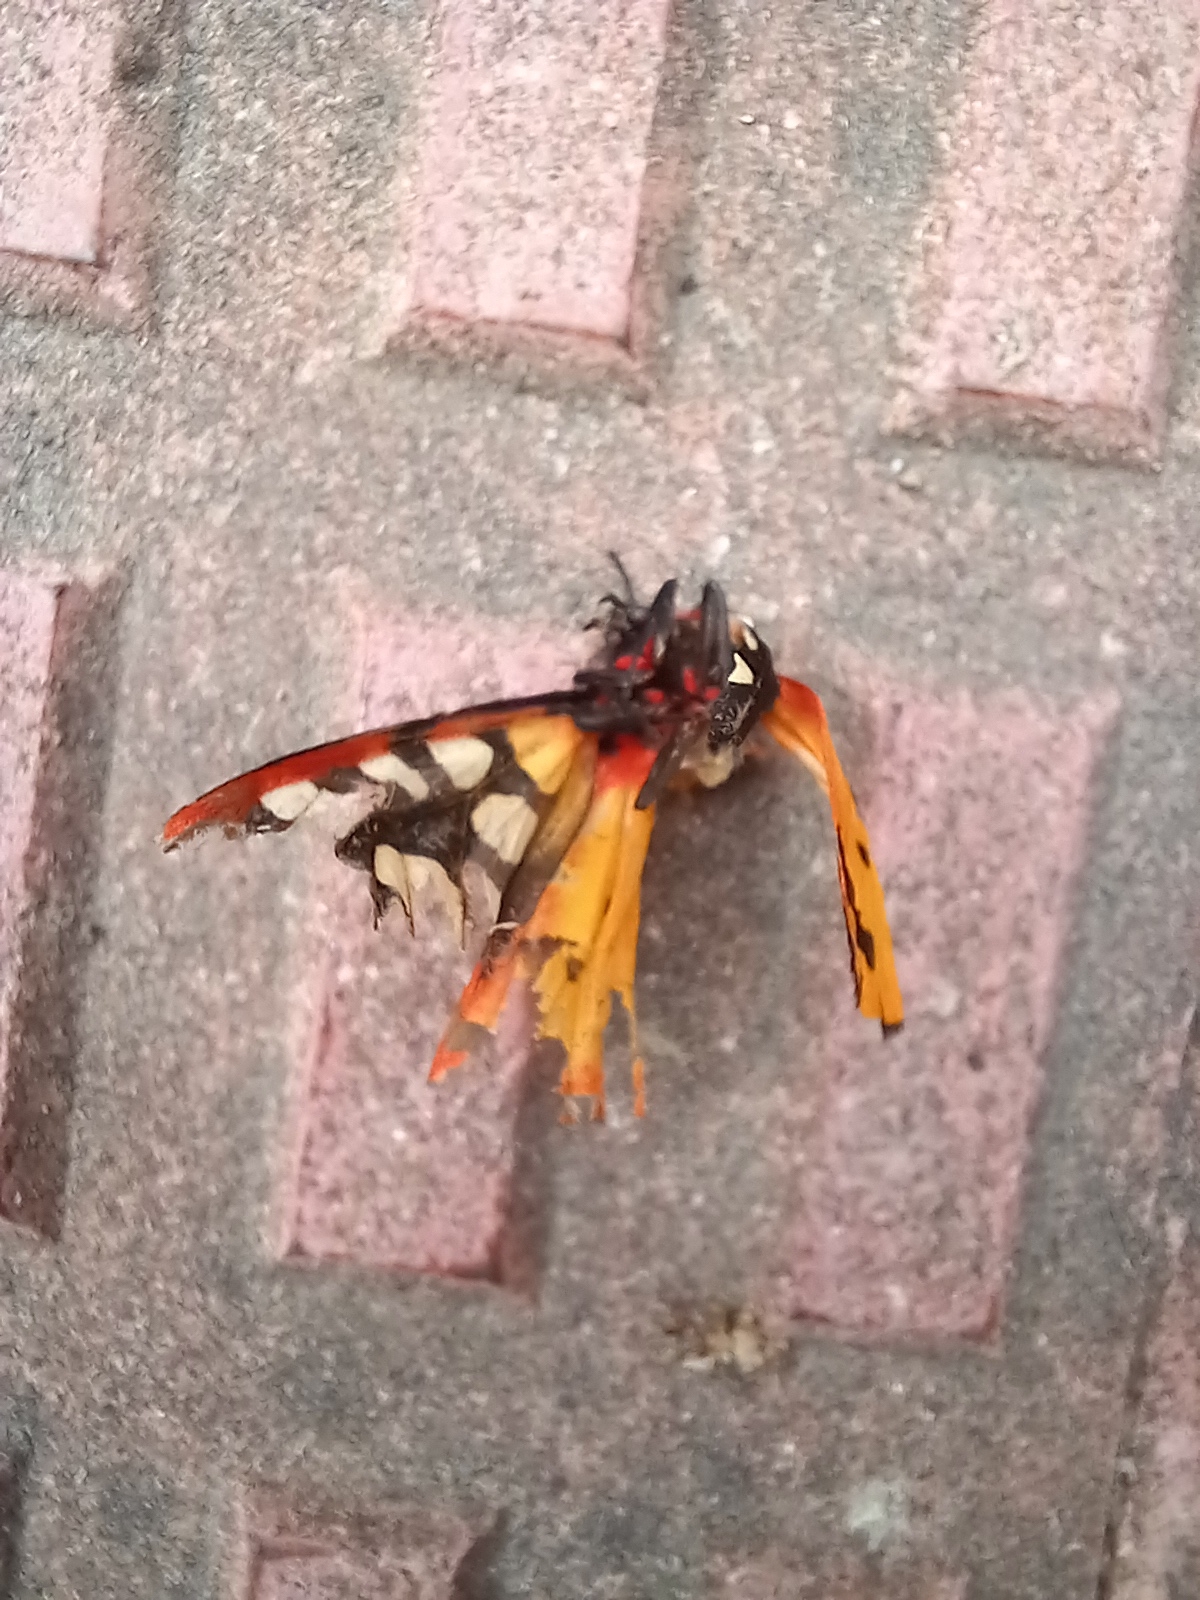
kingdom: Animalia
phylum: Arthropoda
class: Insecta
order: Lepidoptera
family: Erebidae
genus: Epicallia
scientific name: Epicallia villica
